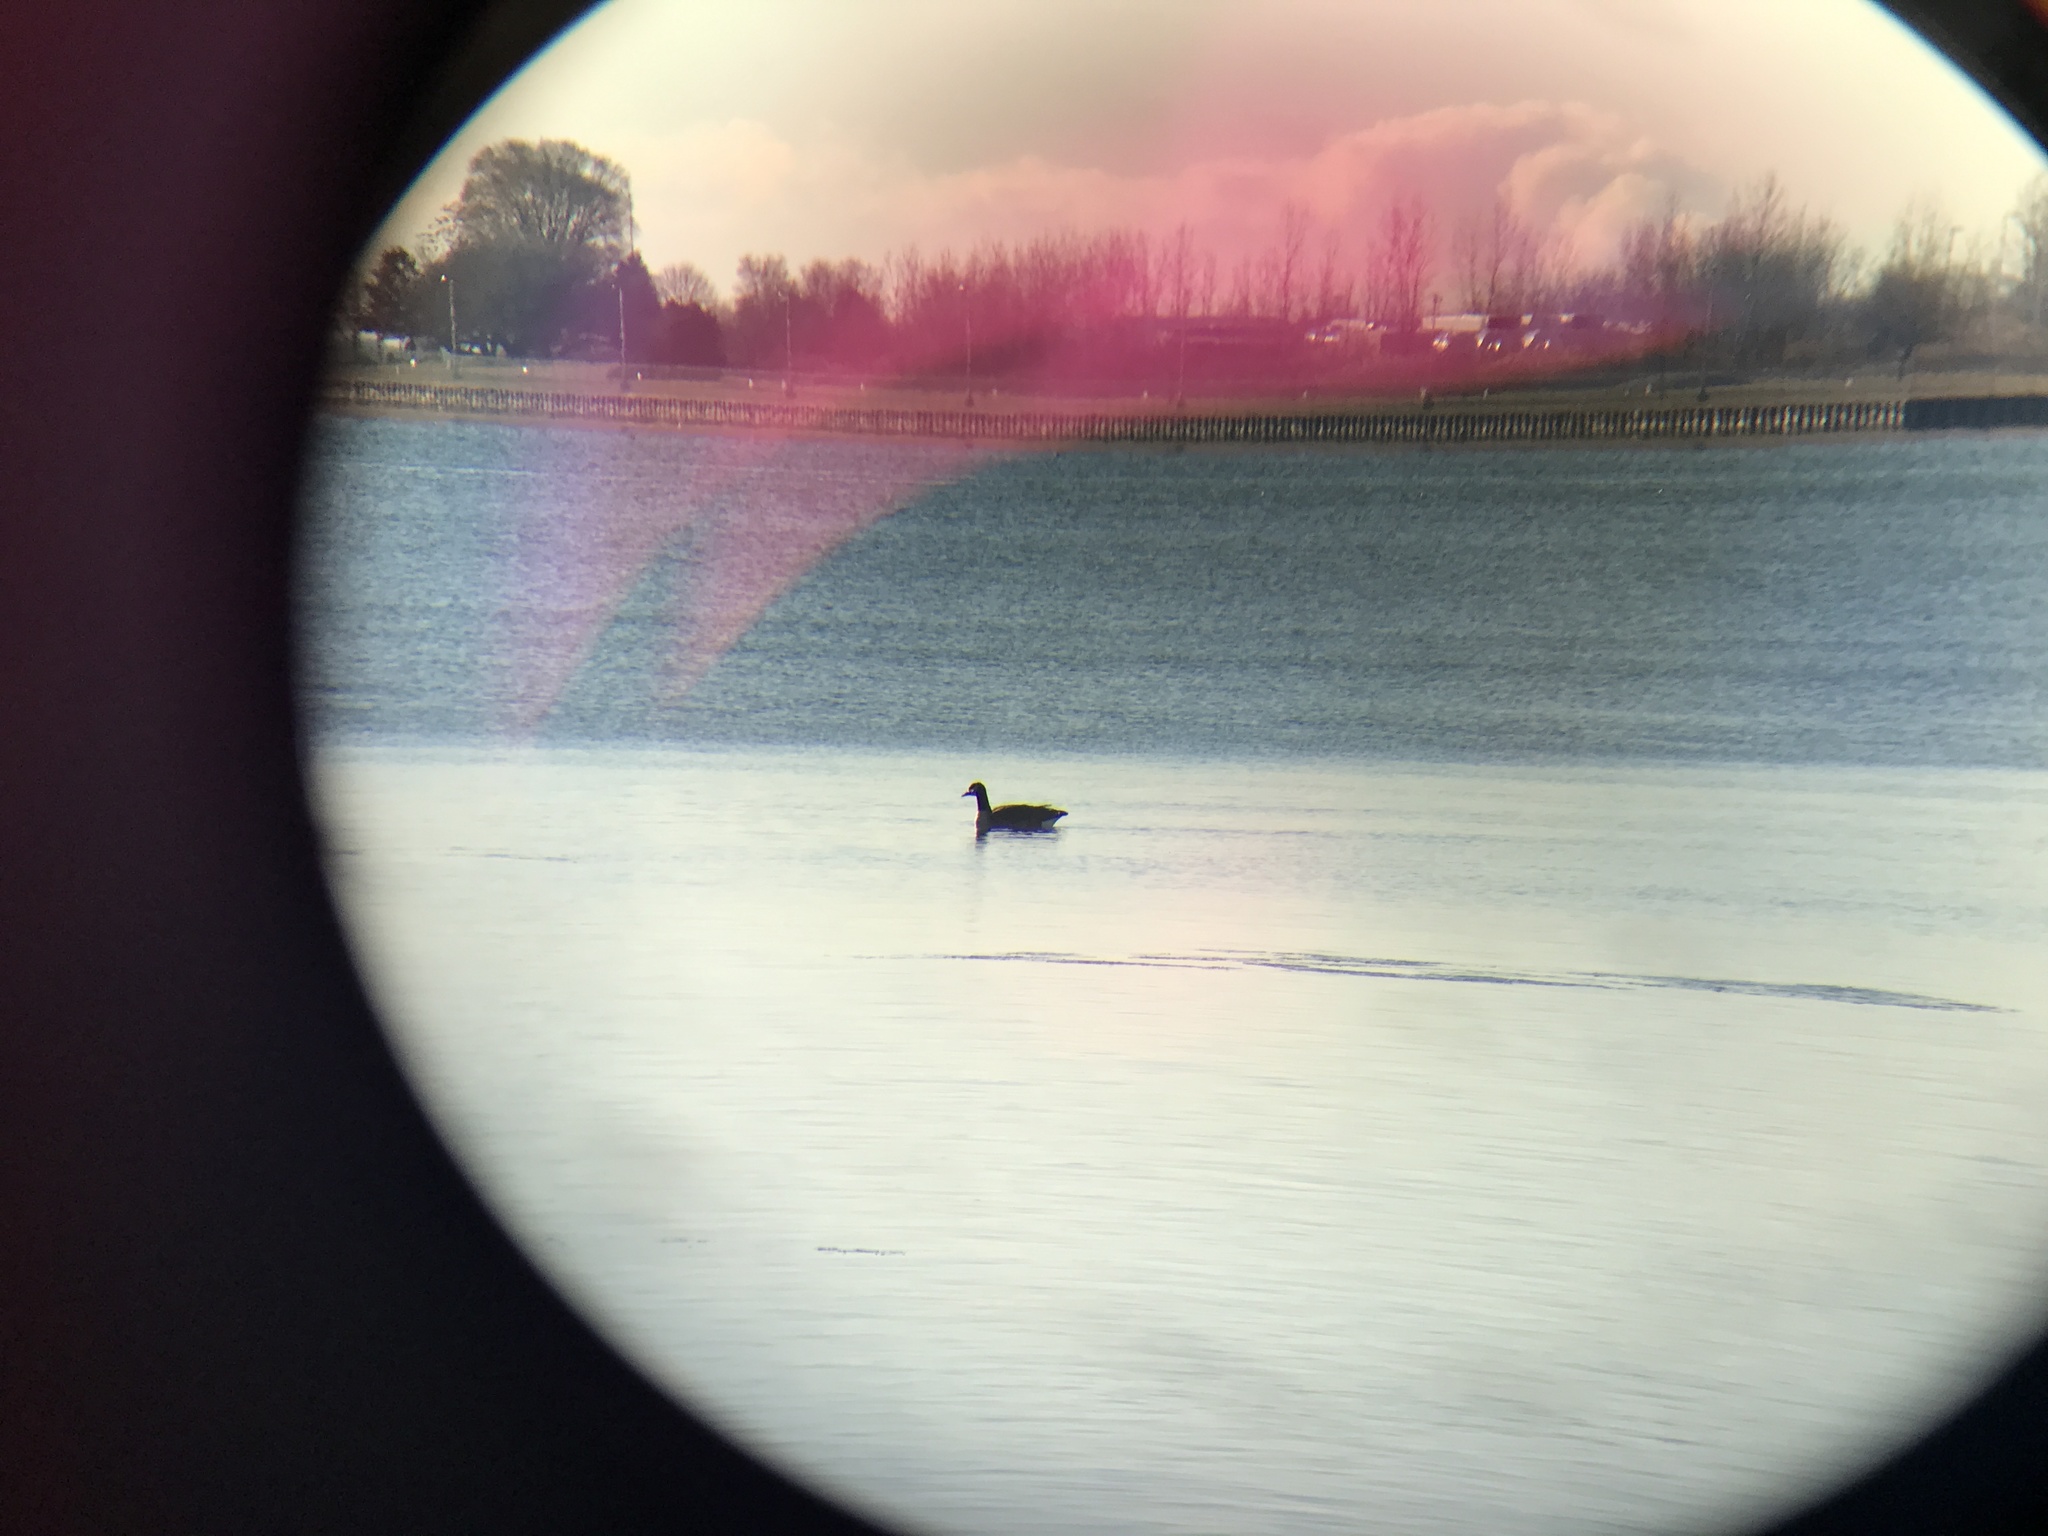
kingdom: Animalia
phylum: Chordata
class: Aves
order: Anseriformes
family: Anatidae
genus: Branta
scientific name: Branta canadensis
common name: Canada goose
